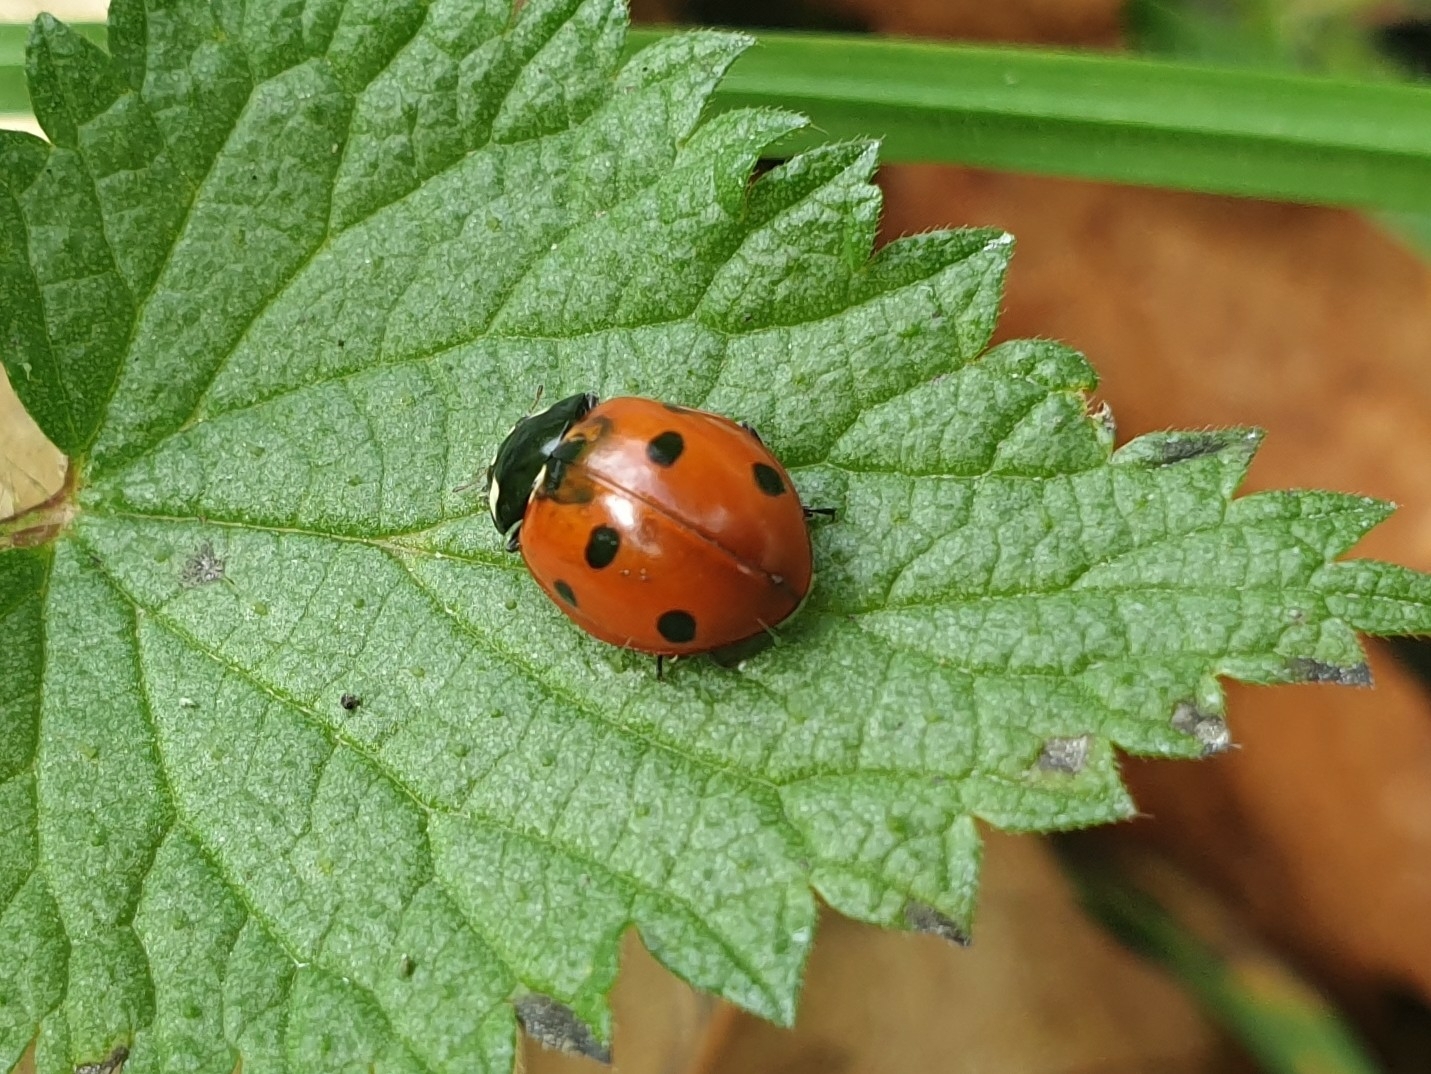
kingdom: Animalia
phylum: Arthropoda
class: Insecta
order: Coleoptera
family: Coccinellidae
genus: Coccinella
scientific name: Coccinella septempunctata
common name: Sevenspotted lady beetle
